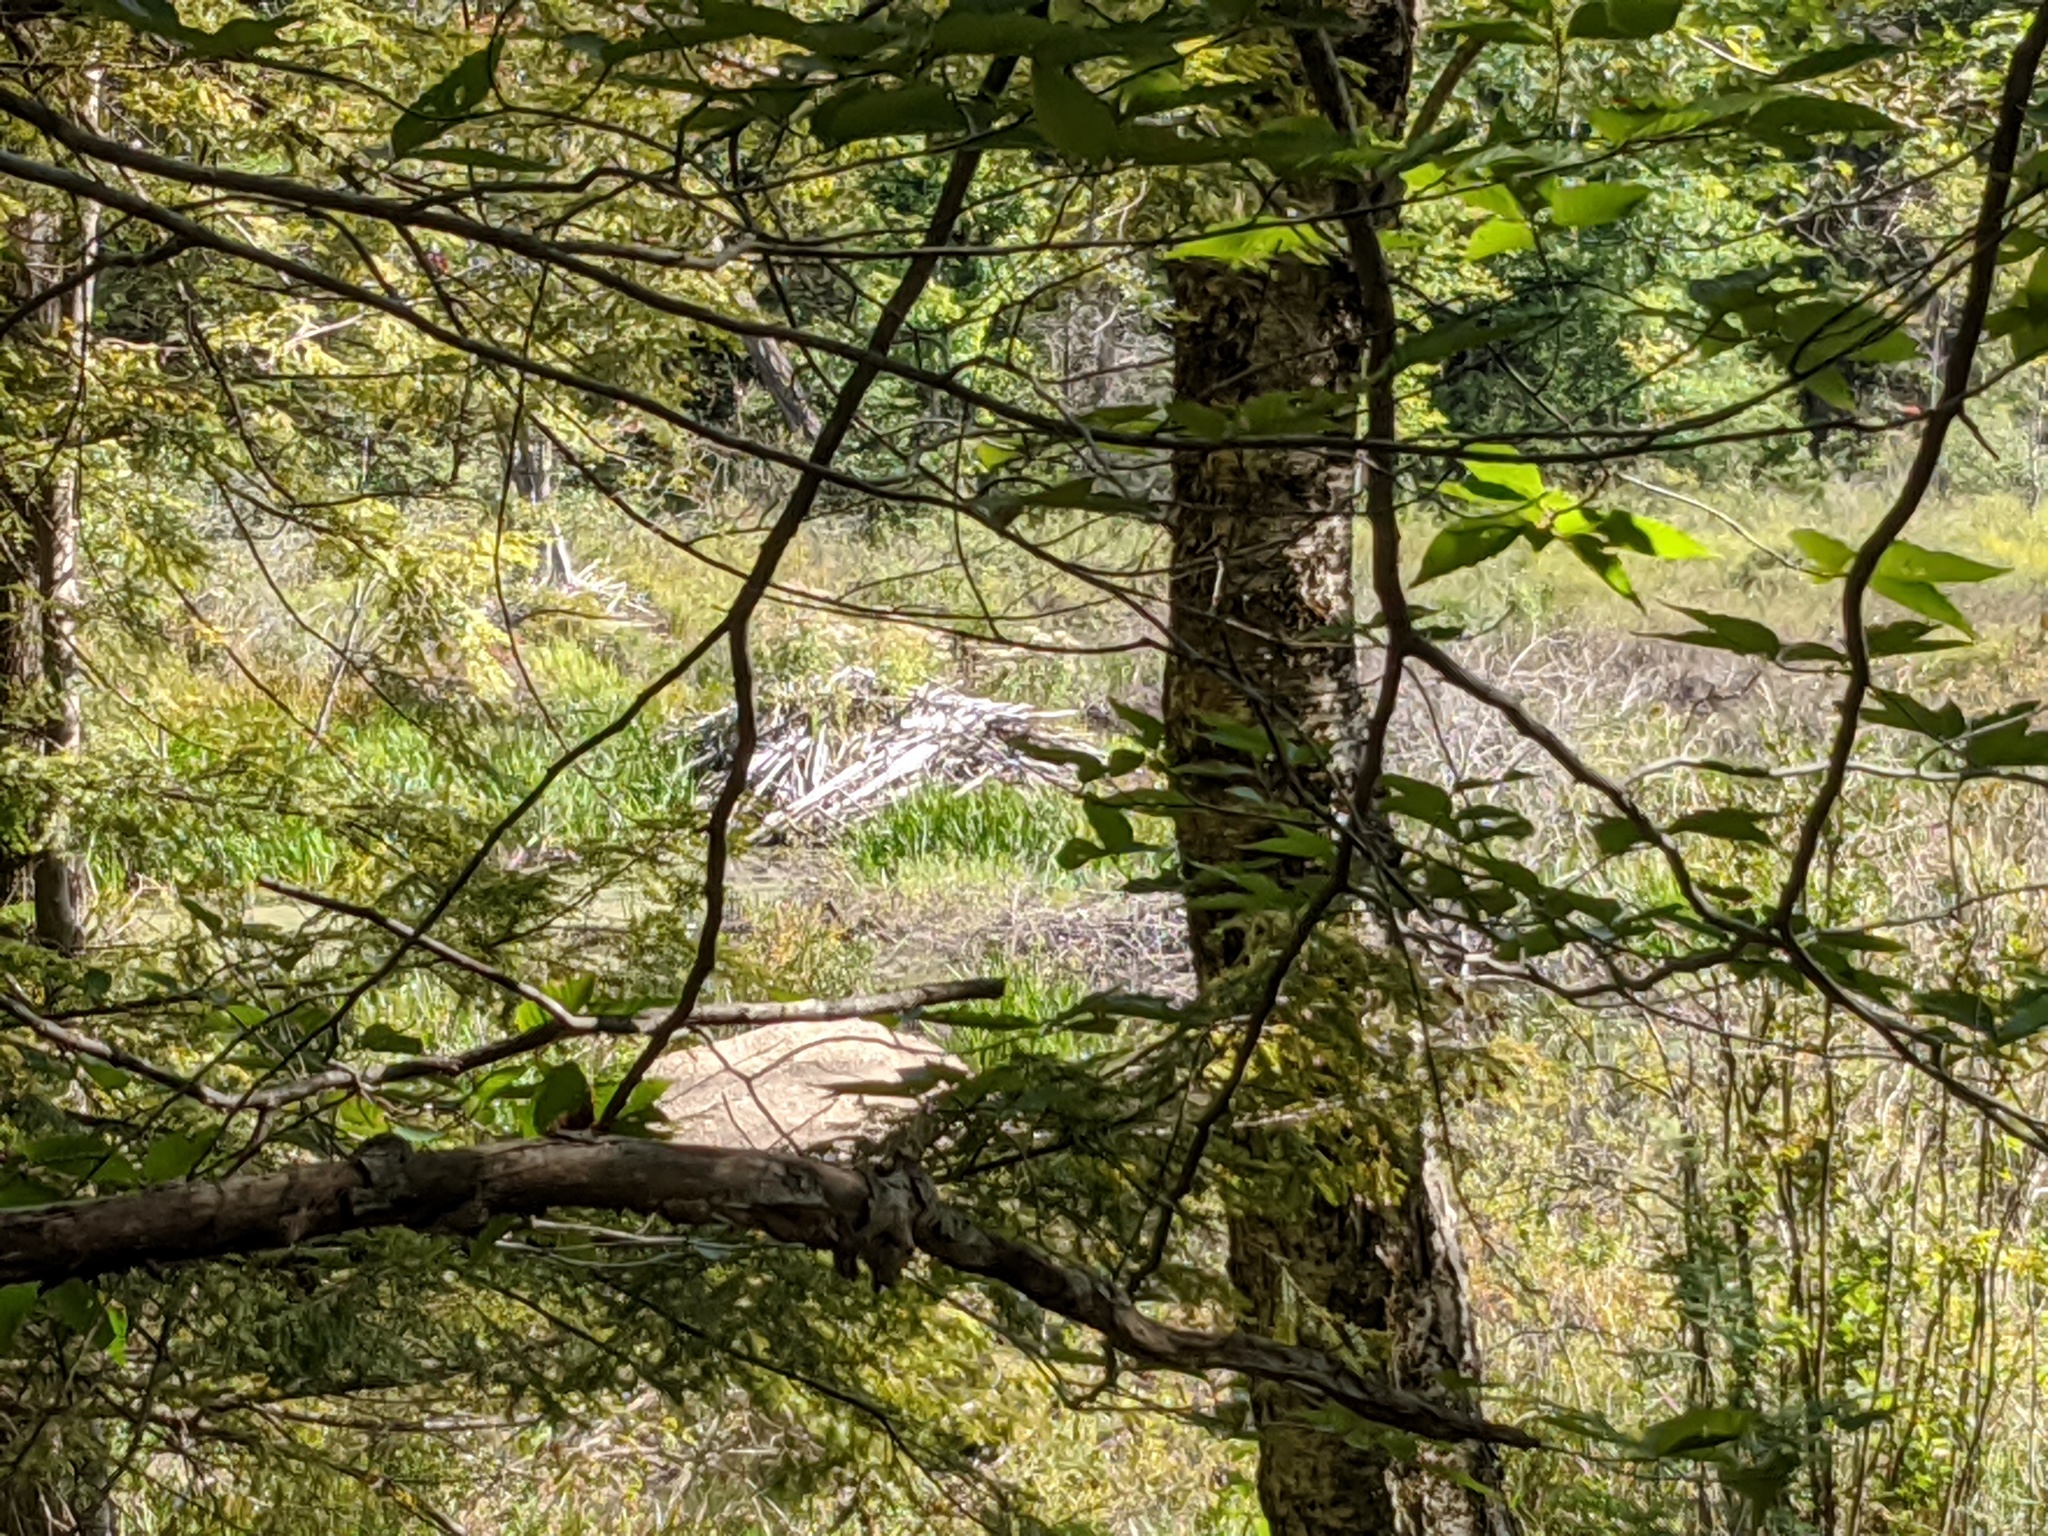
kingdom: Animalia
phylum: Chordata
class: Mammalia
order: Rodentia
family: Castoridae
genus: Castor
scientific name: Castor canadensis
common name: American beaver
